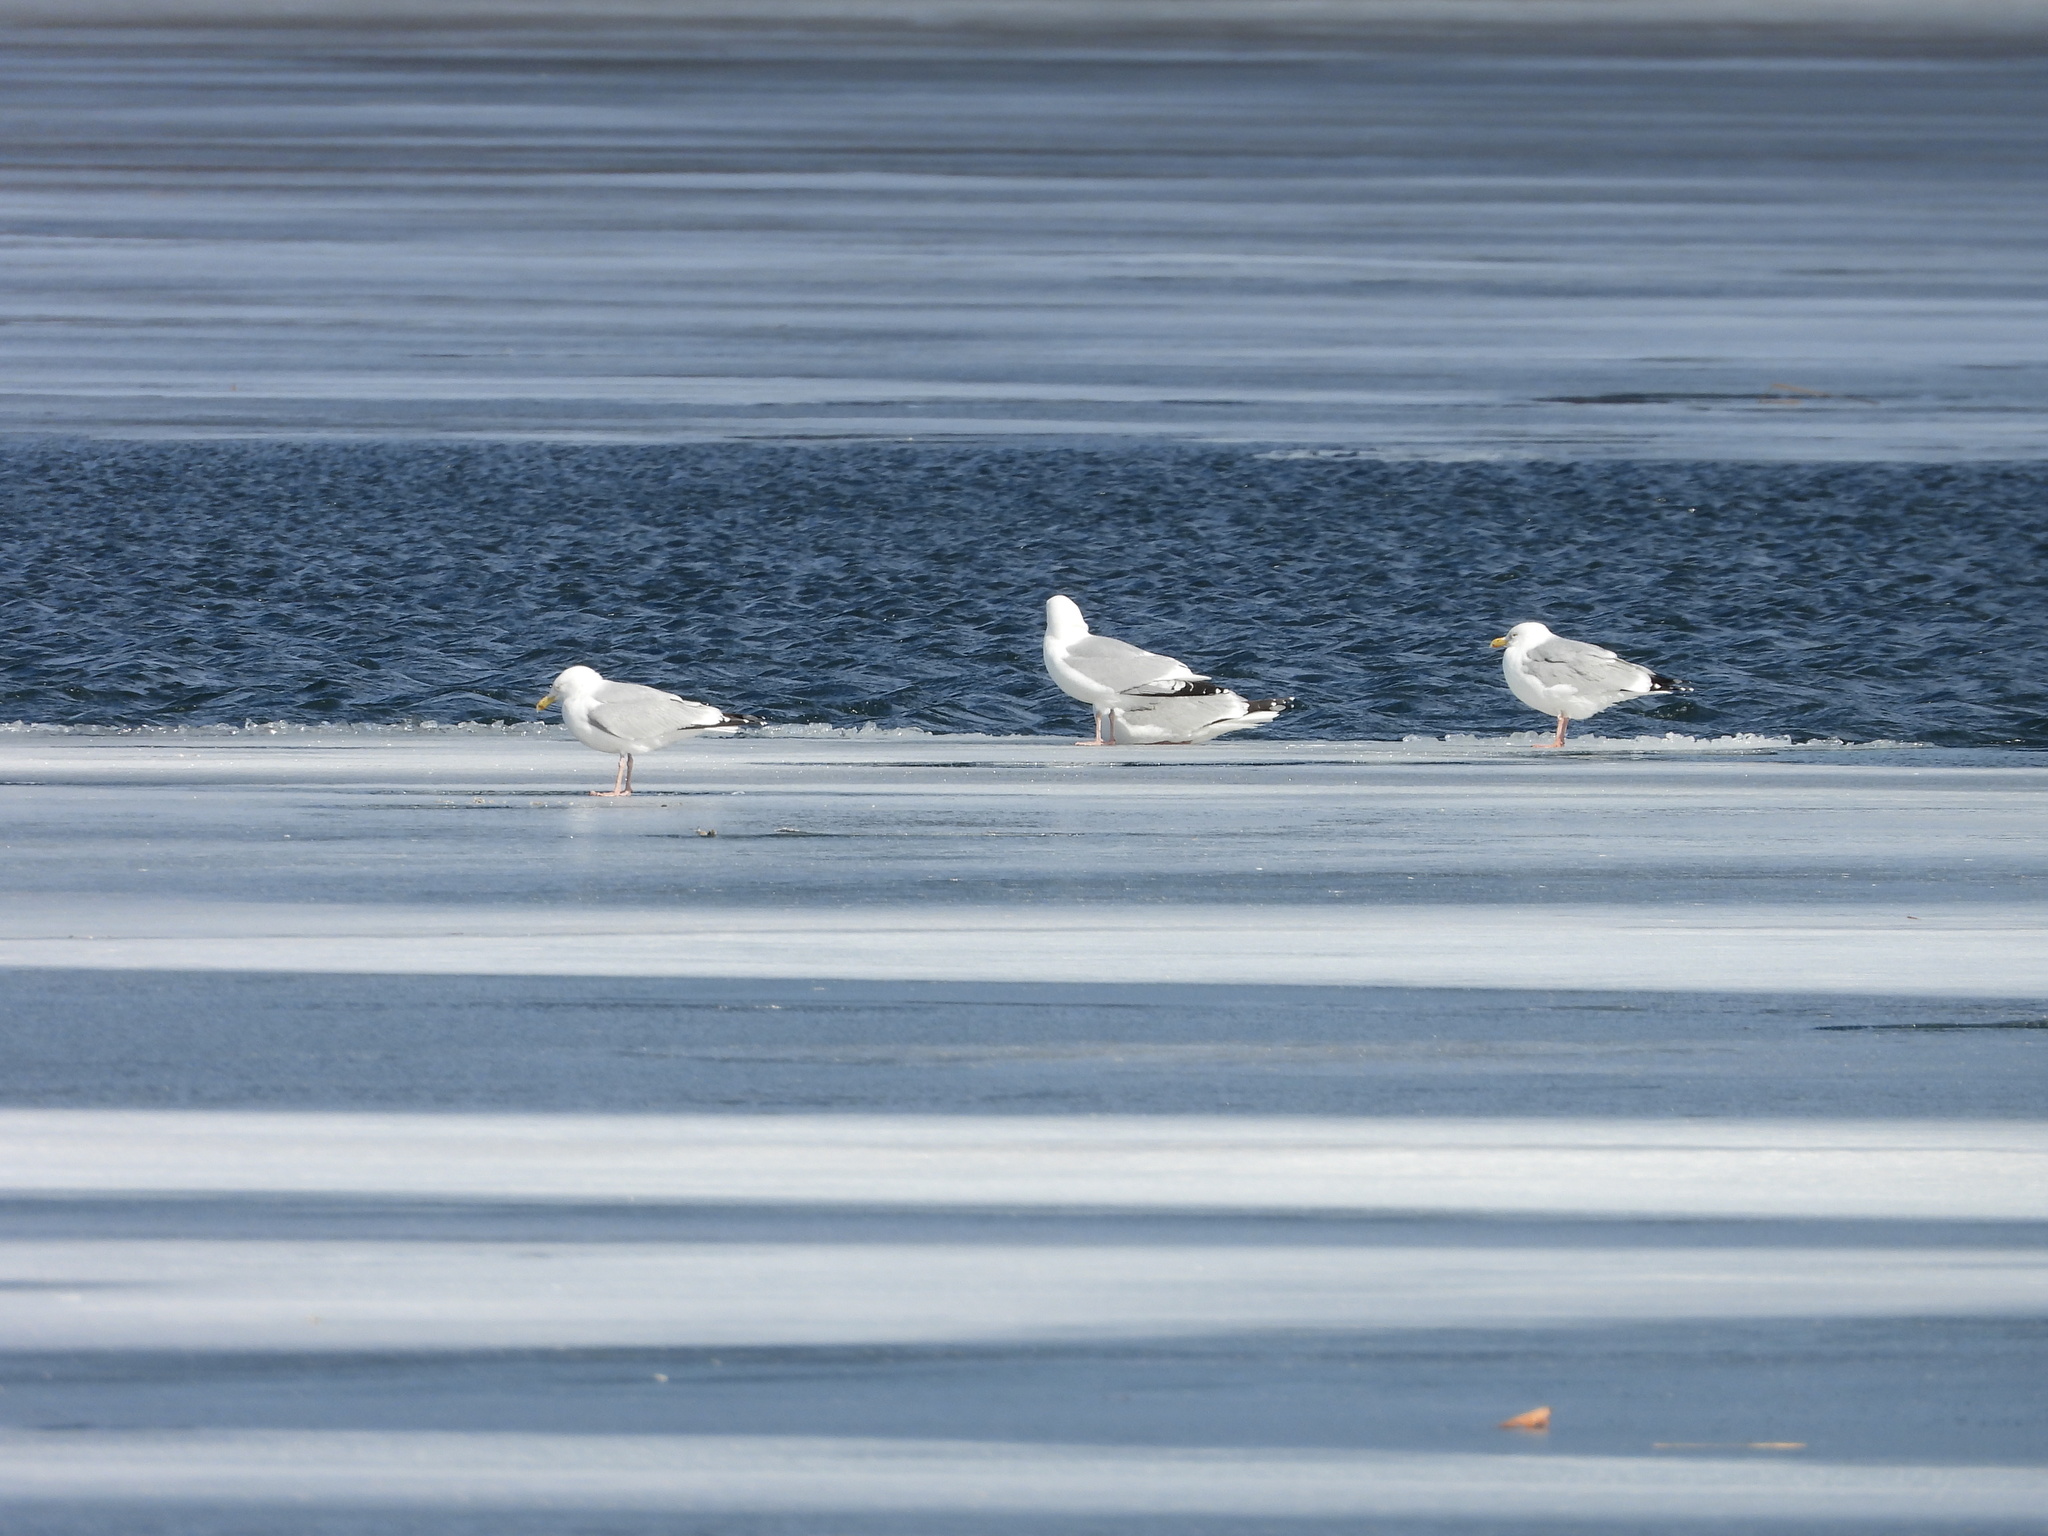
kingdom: Animalia
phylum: Chordata
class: Aves
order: Charadriiformes
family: Laridae
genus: Larus
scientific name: Larus argentatus
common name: Herring gull
